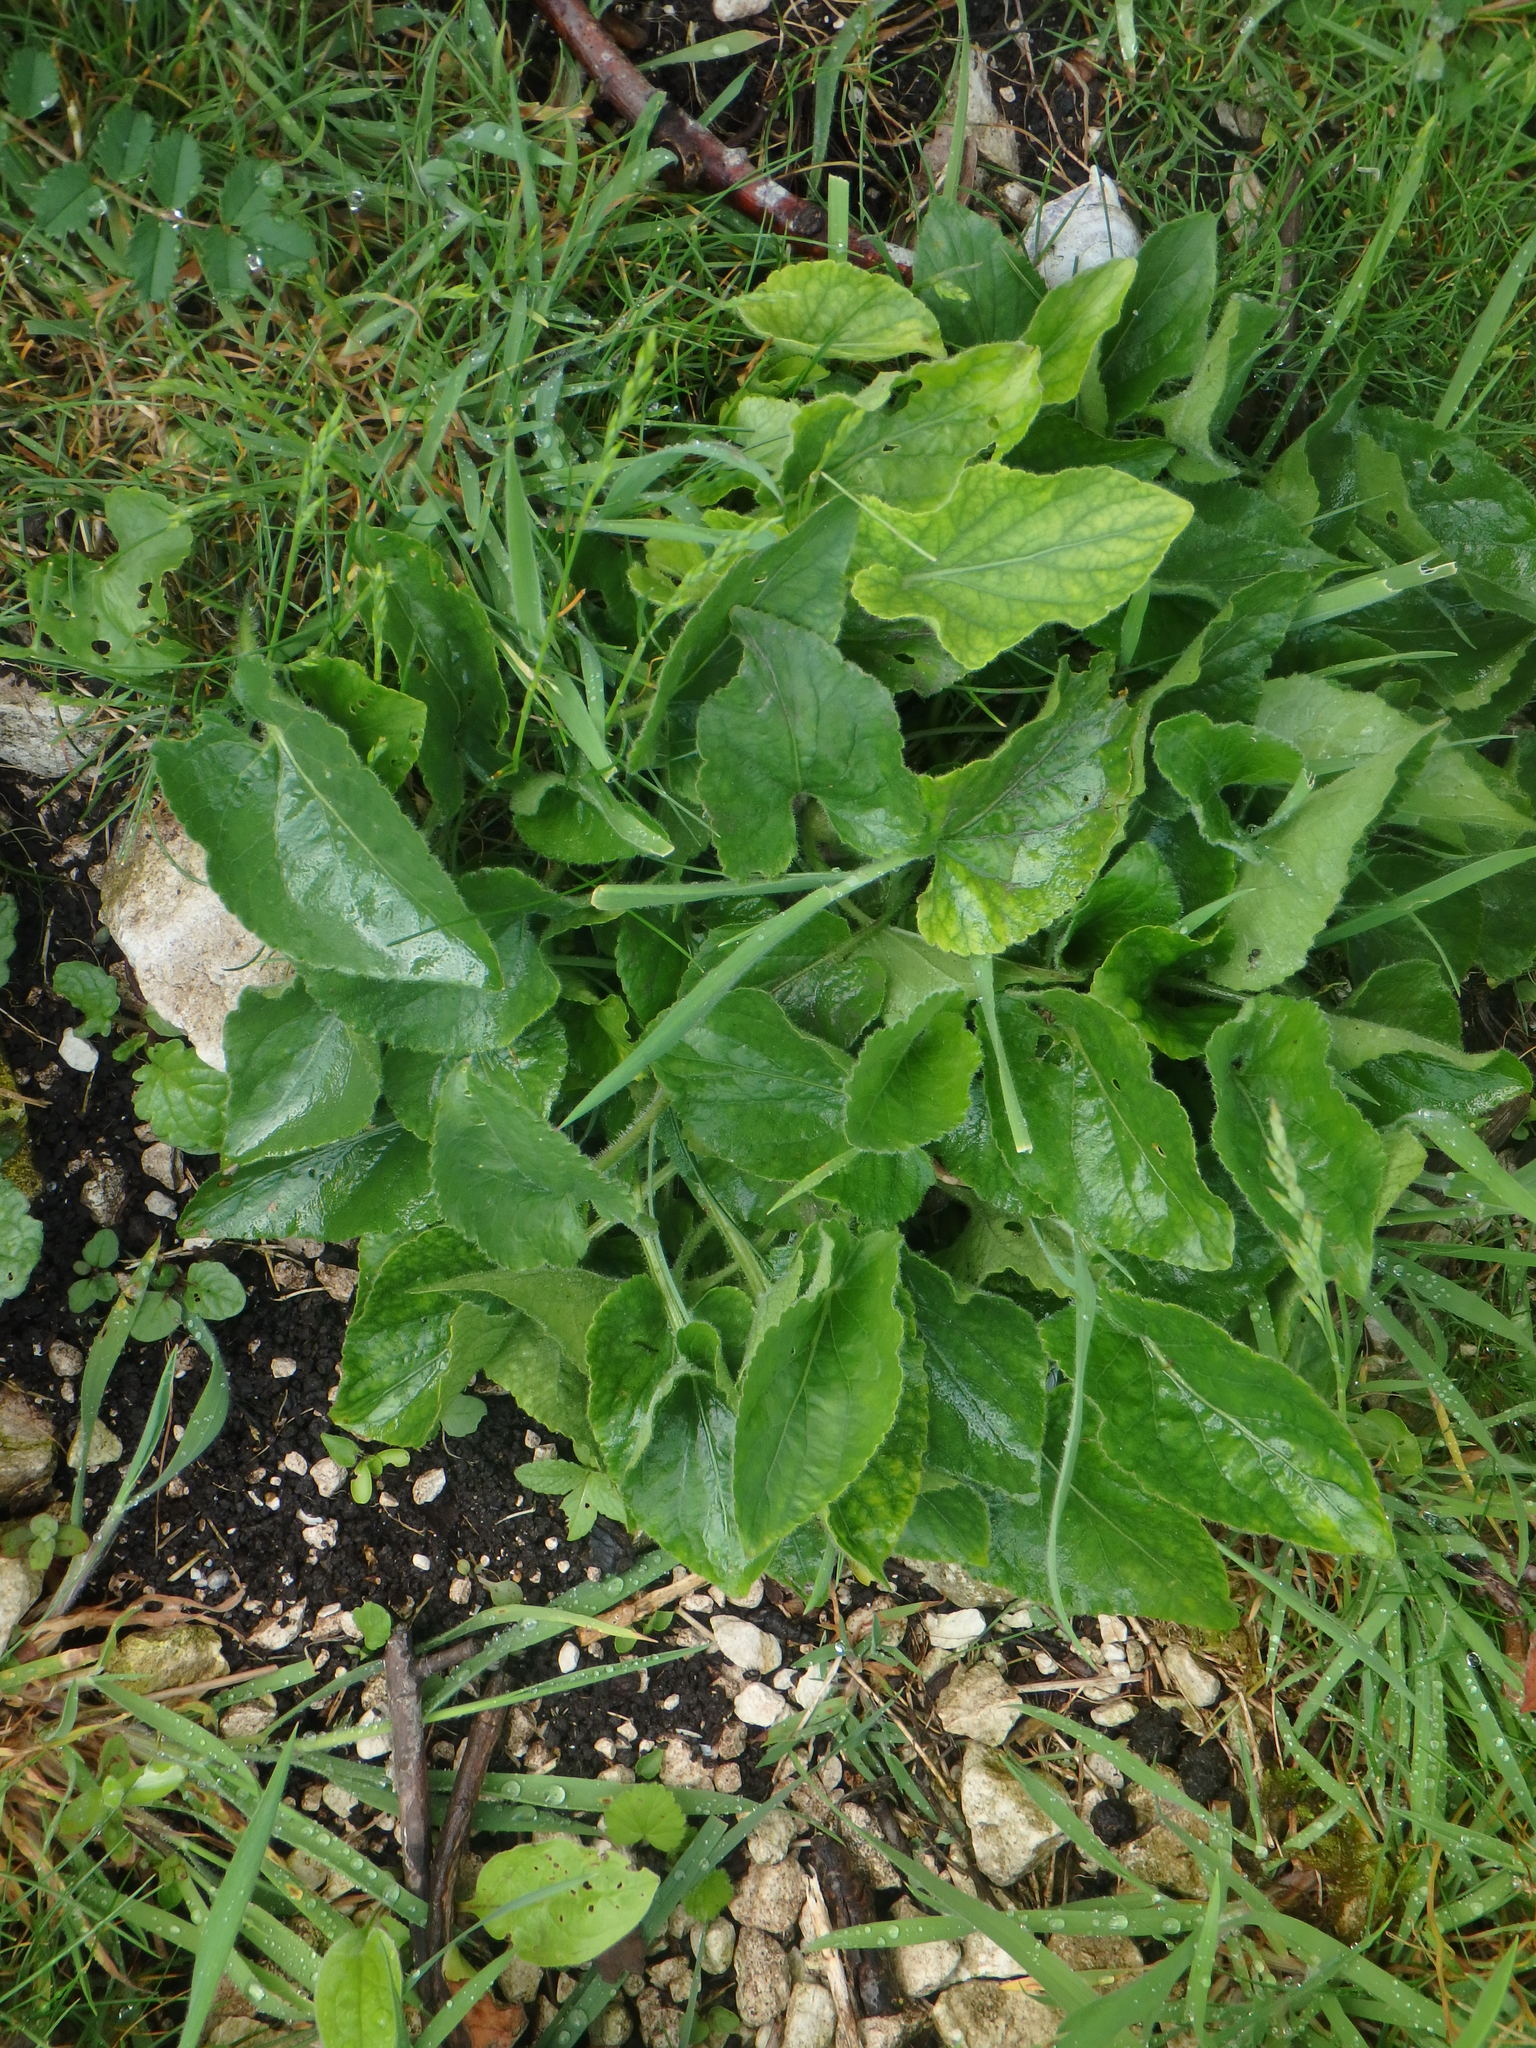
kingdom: Plantae
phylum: Tracheophyta
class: Magnoliopsida
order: Malpighiales
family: Violaceae
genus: Viola
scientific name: Viola hirta
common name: Hairy violet
